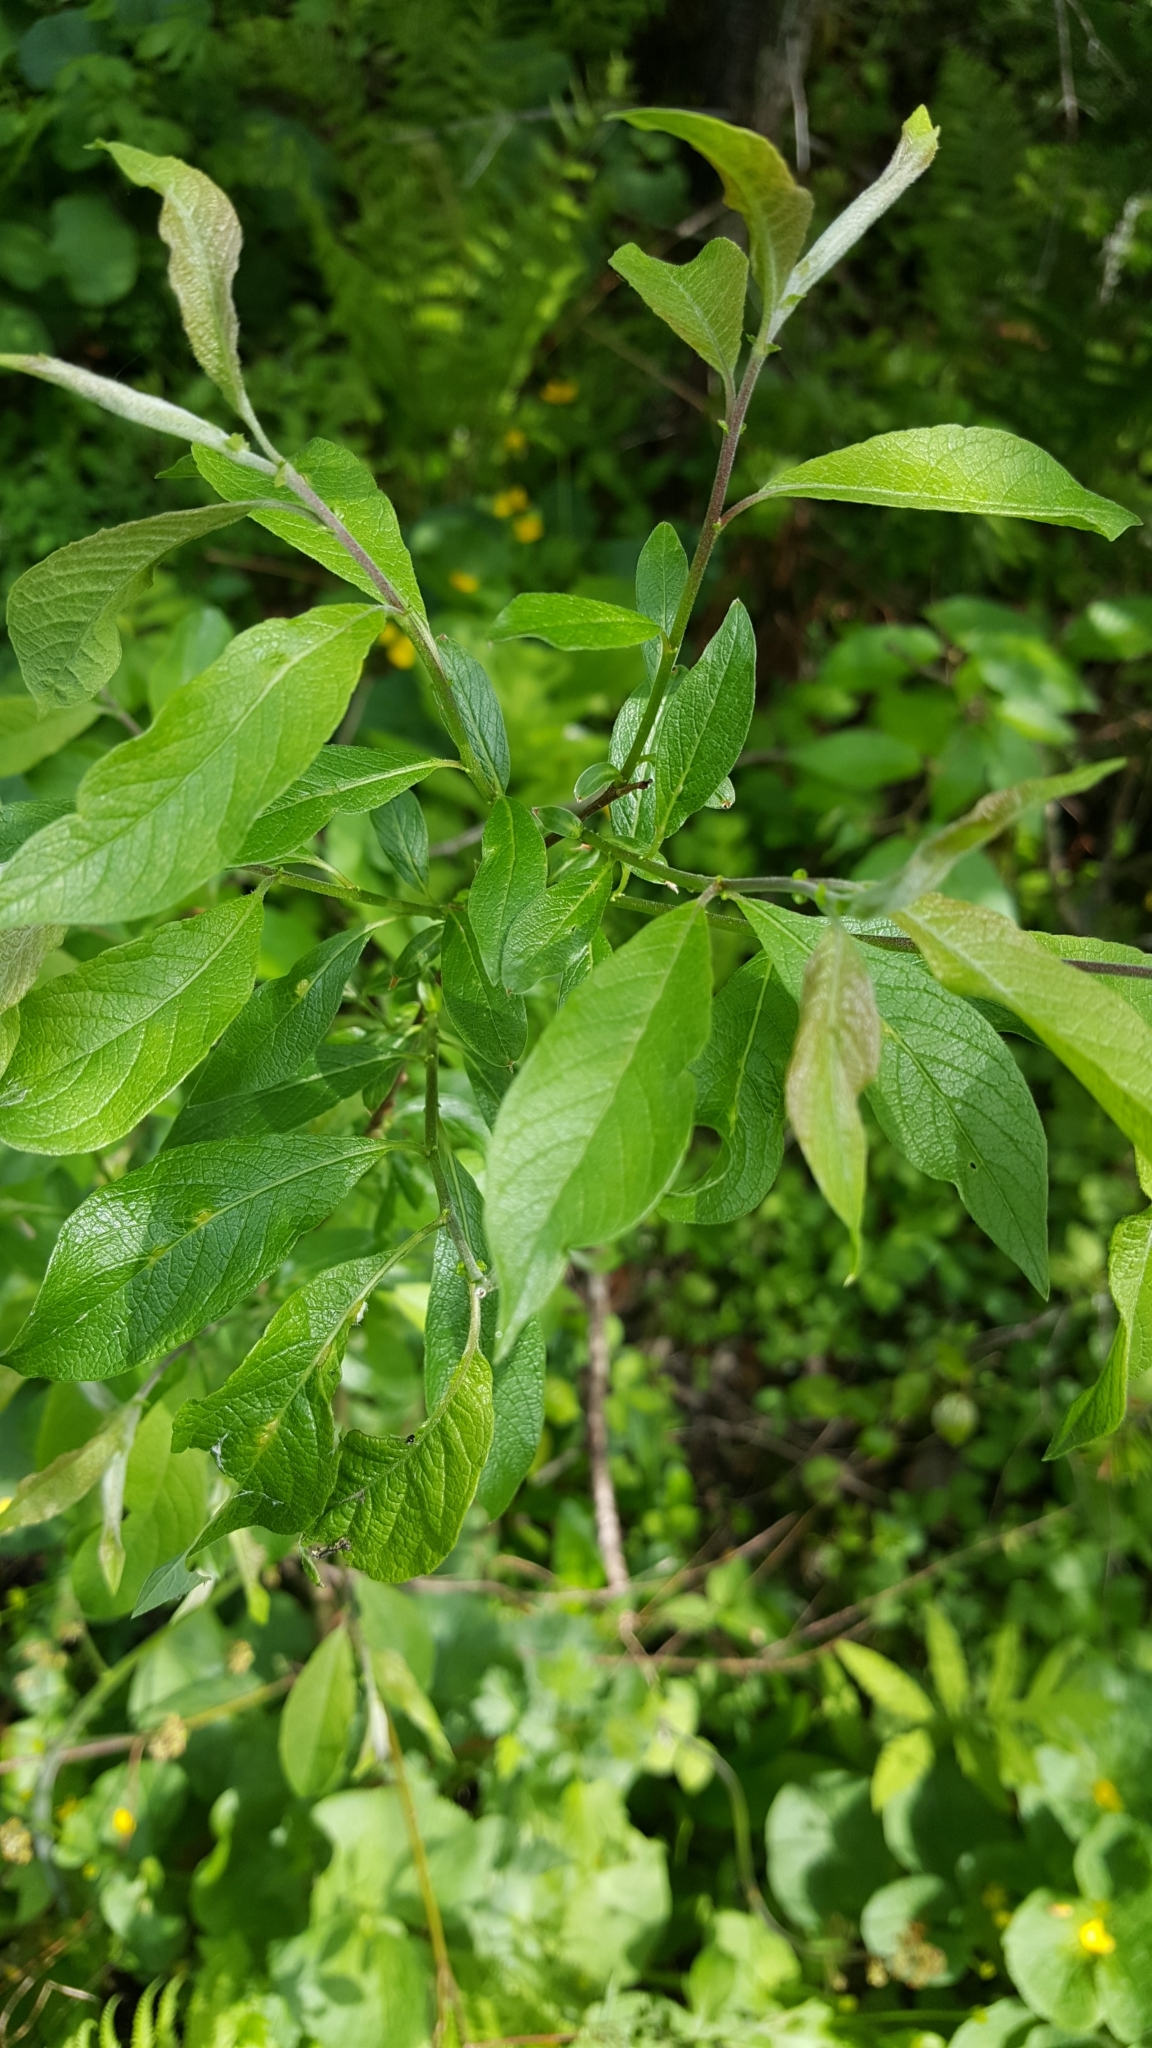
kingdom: Plantae
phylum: Tracheophyta
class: Magnoliopsida
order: Malpighiales
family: Salicaceae
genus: Salix
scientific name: Salix bebbiana
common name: Bebb's willow
